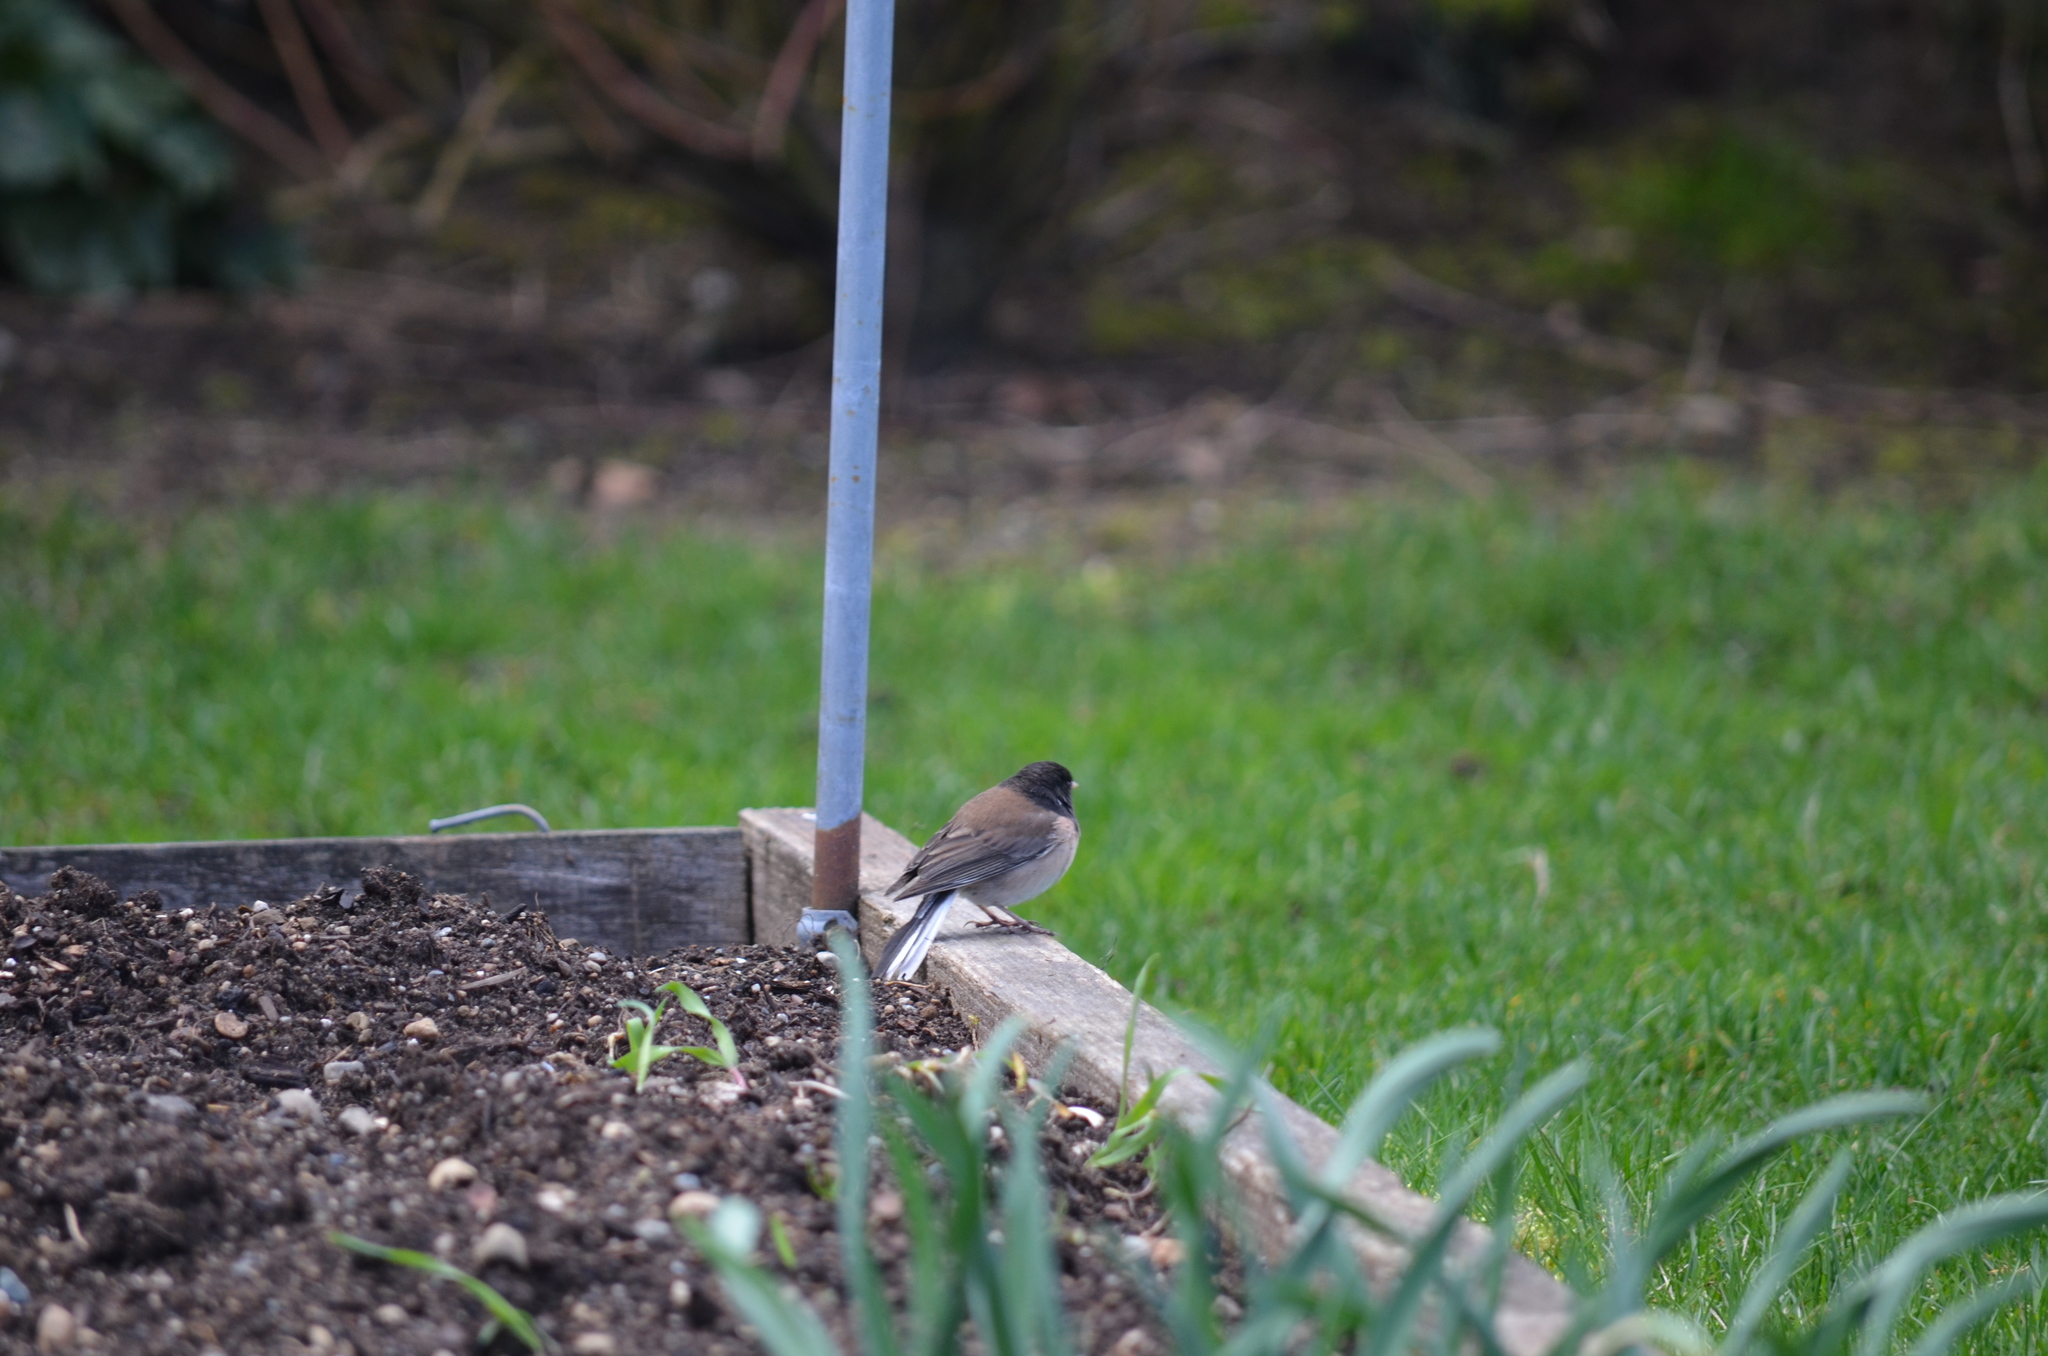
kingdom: Animalia
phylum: Chordata
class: Aves
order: Passeriformes
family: Passerellidae
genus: Junco
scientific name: Junco hyemalis
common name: Dark-eyed junco
